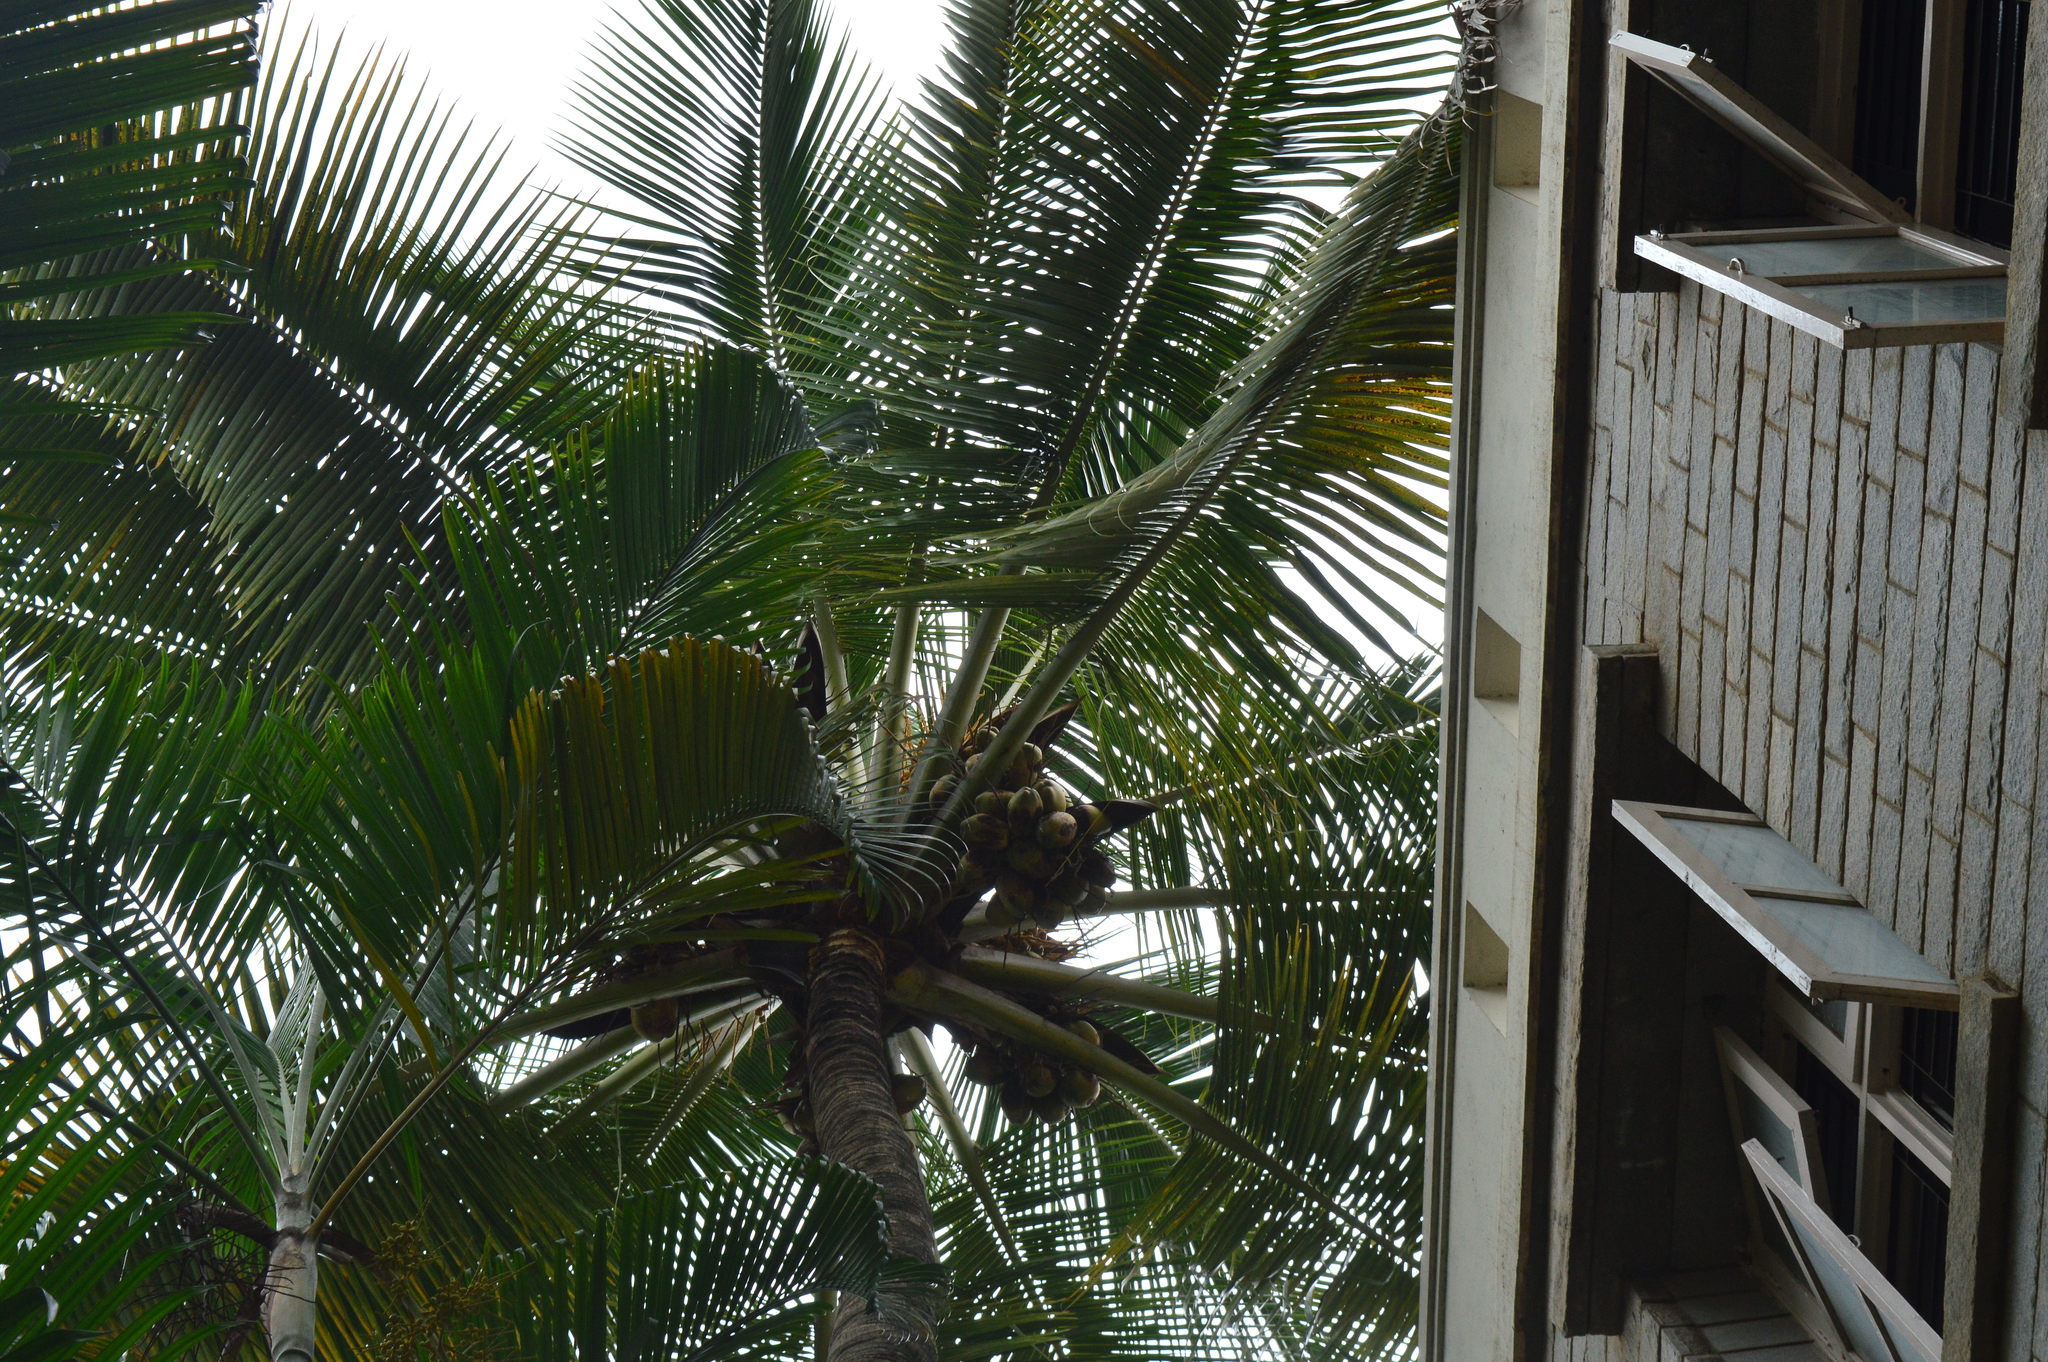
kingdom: Plantae
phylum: Tracheophyta
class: Liliopsida
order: Arecales
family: Arecaceae
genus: Cocos
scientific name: Cocos nucifera
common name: Coconut palm
